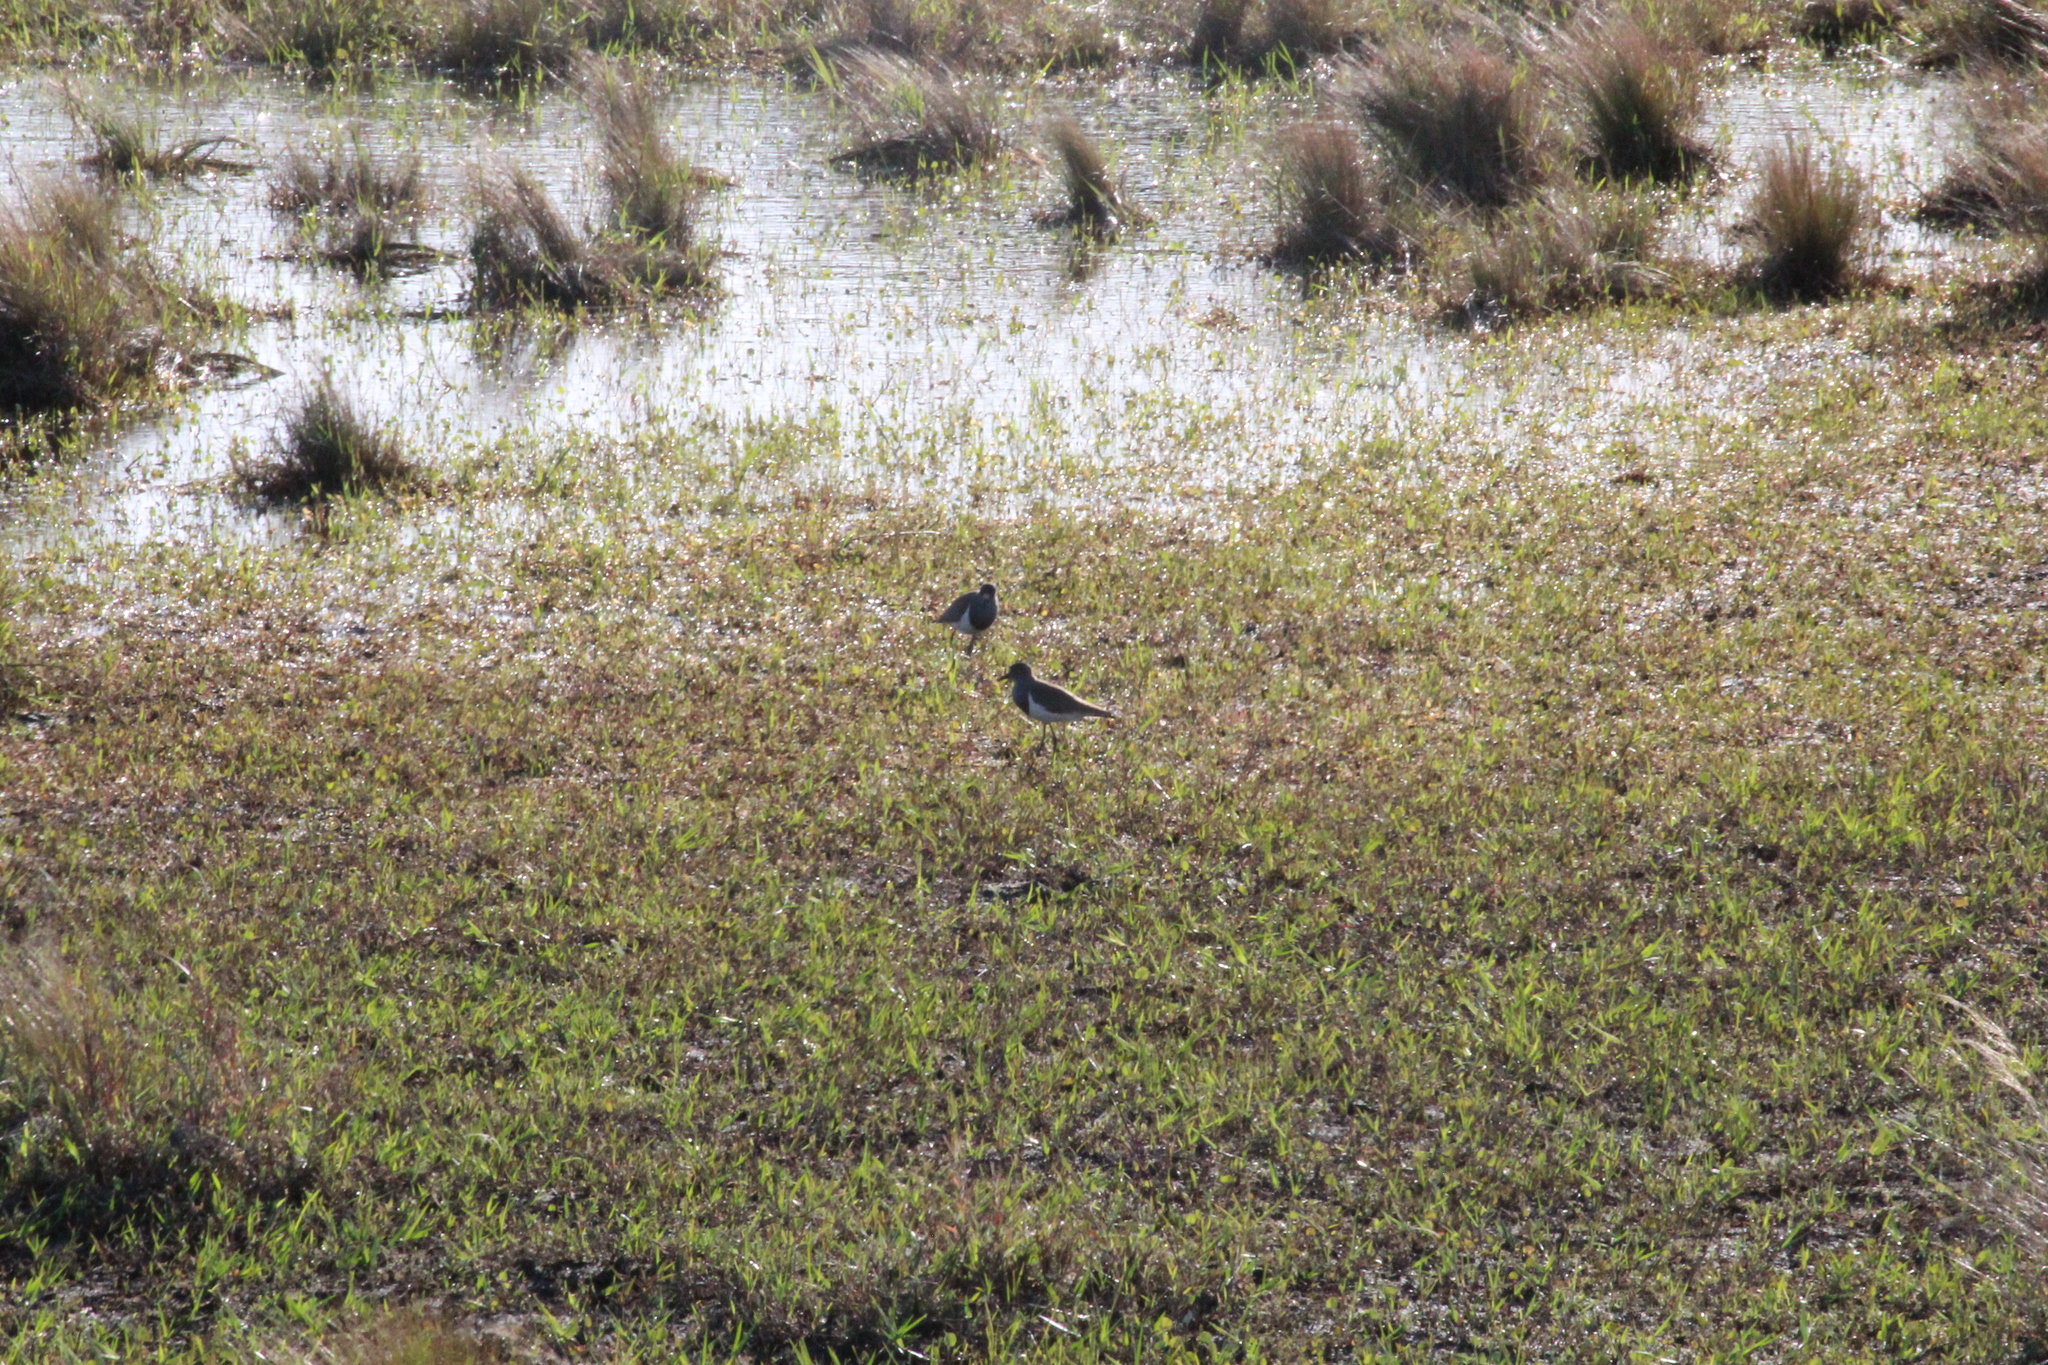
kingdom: Animalia
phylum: Chordata
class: Aves
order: Charadriiformes
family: Charadriidae
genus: Vanellus
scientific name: Vanellus lugubris
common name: Senegal lapwing
